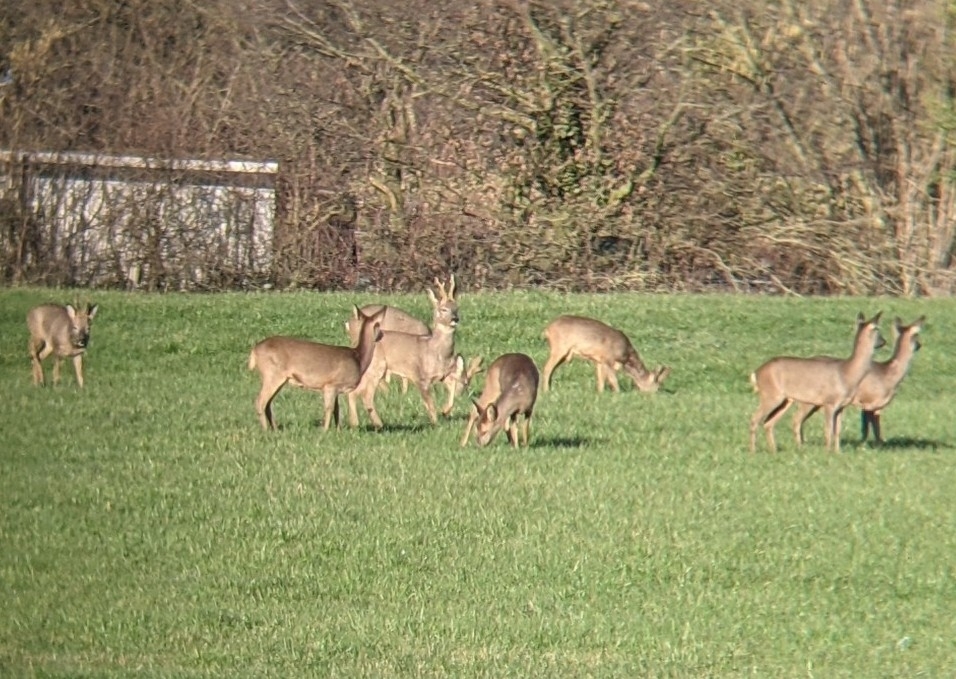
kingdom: Animalia
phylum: Chordata
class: Mammalia
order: Artiodactyla
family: Cervidae
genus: Capreolus
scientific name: Capreolus capreolus
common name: Western roe deer
